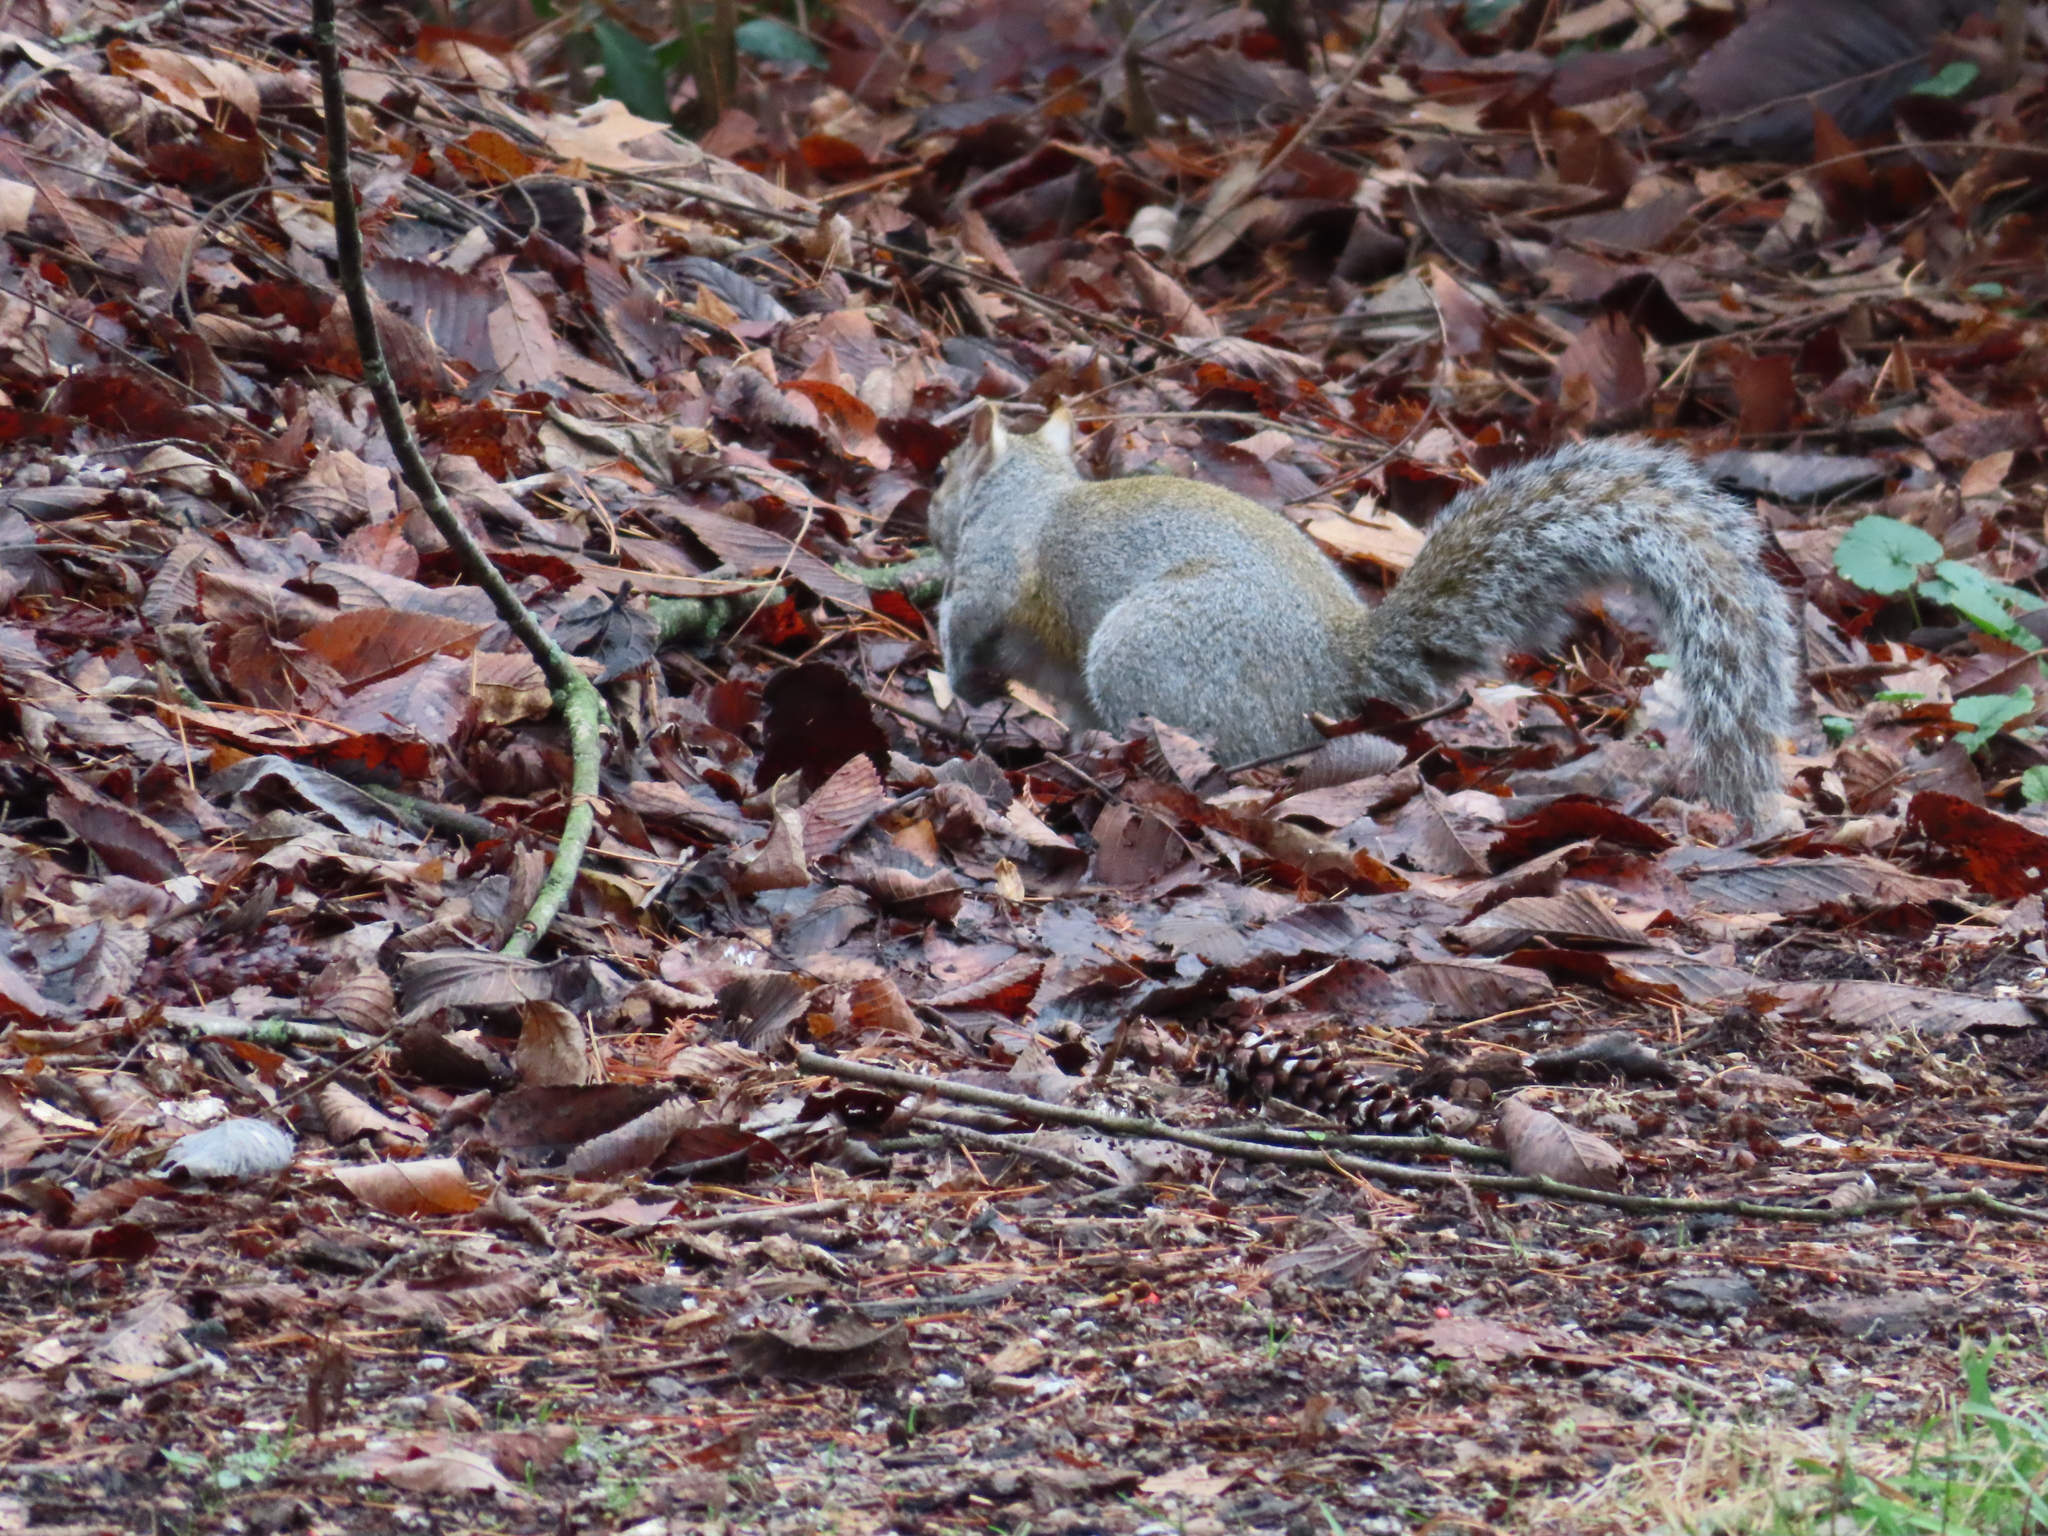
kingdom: Animalia
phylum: Chordata
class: Mammalia
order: Rodentia
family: Sciuridae
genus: Sciurus
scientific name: Sciurus carolinensis
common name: Eastern gray squirrel
